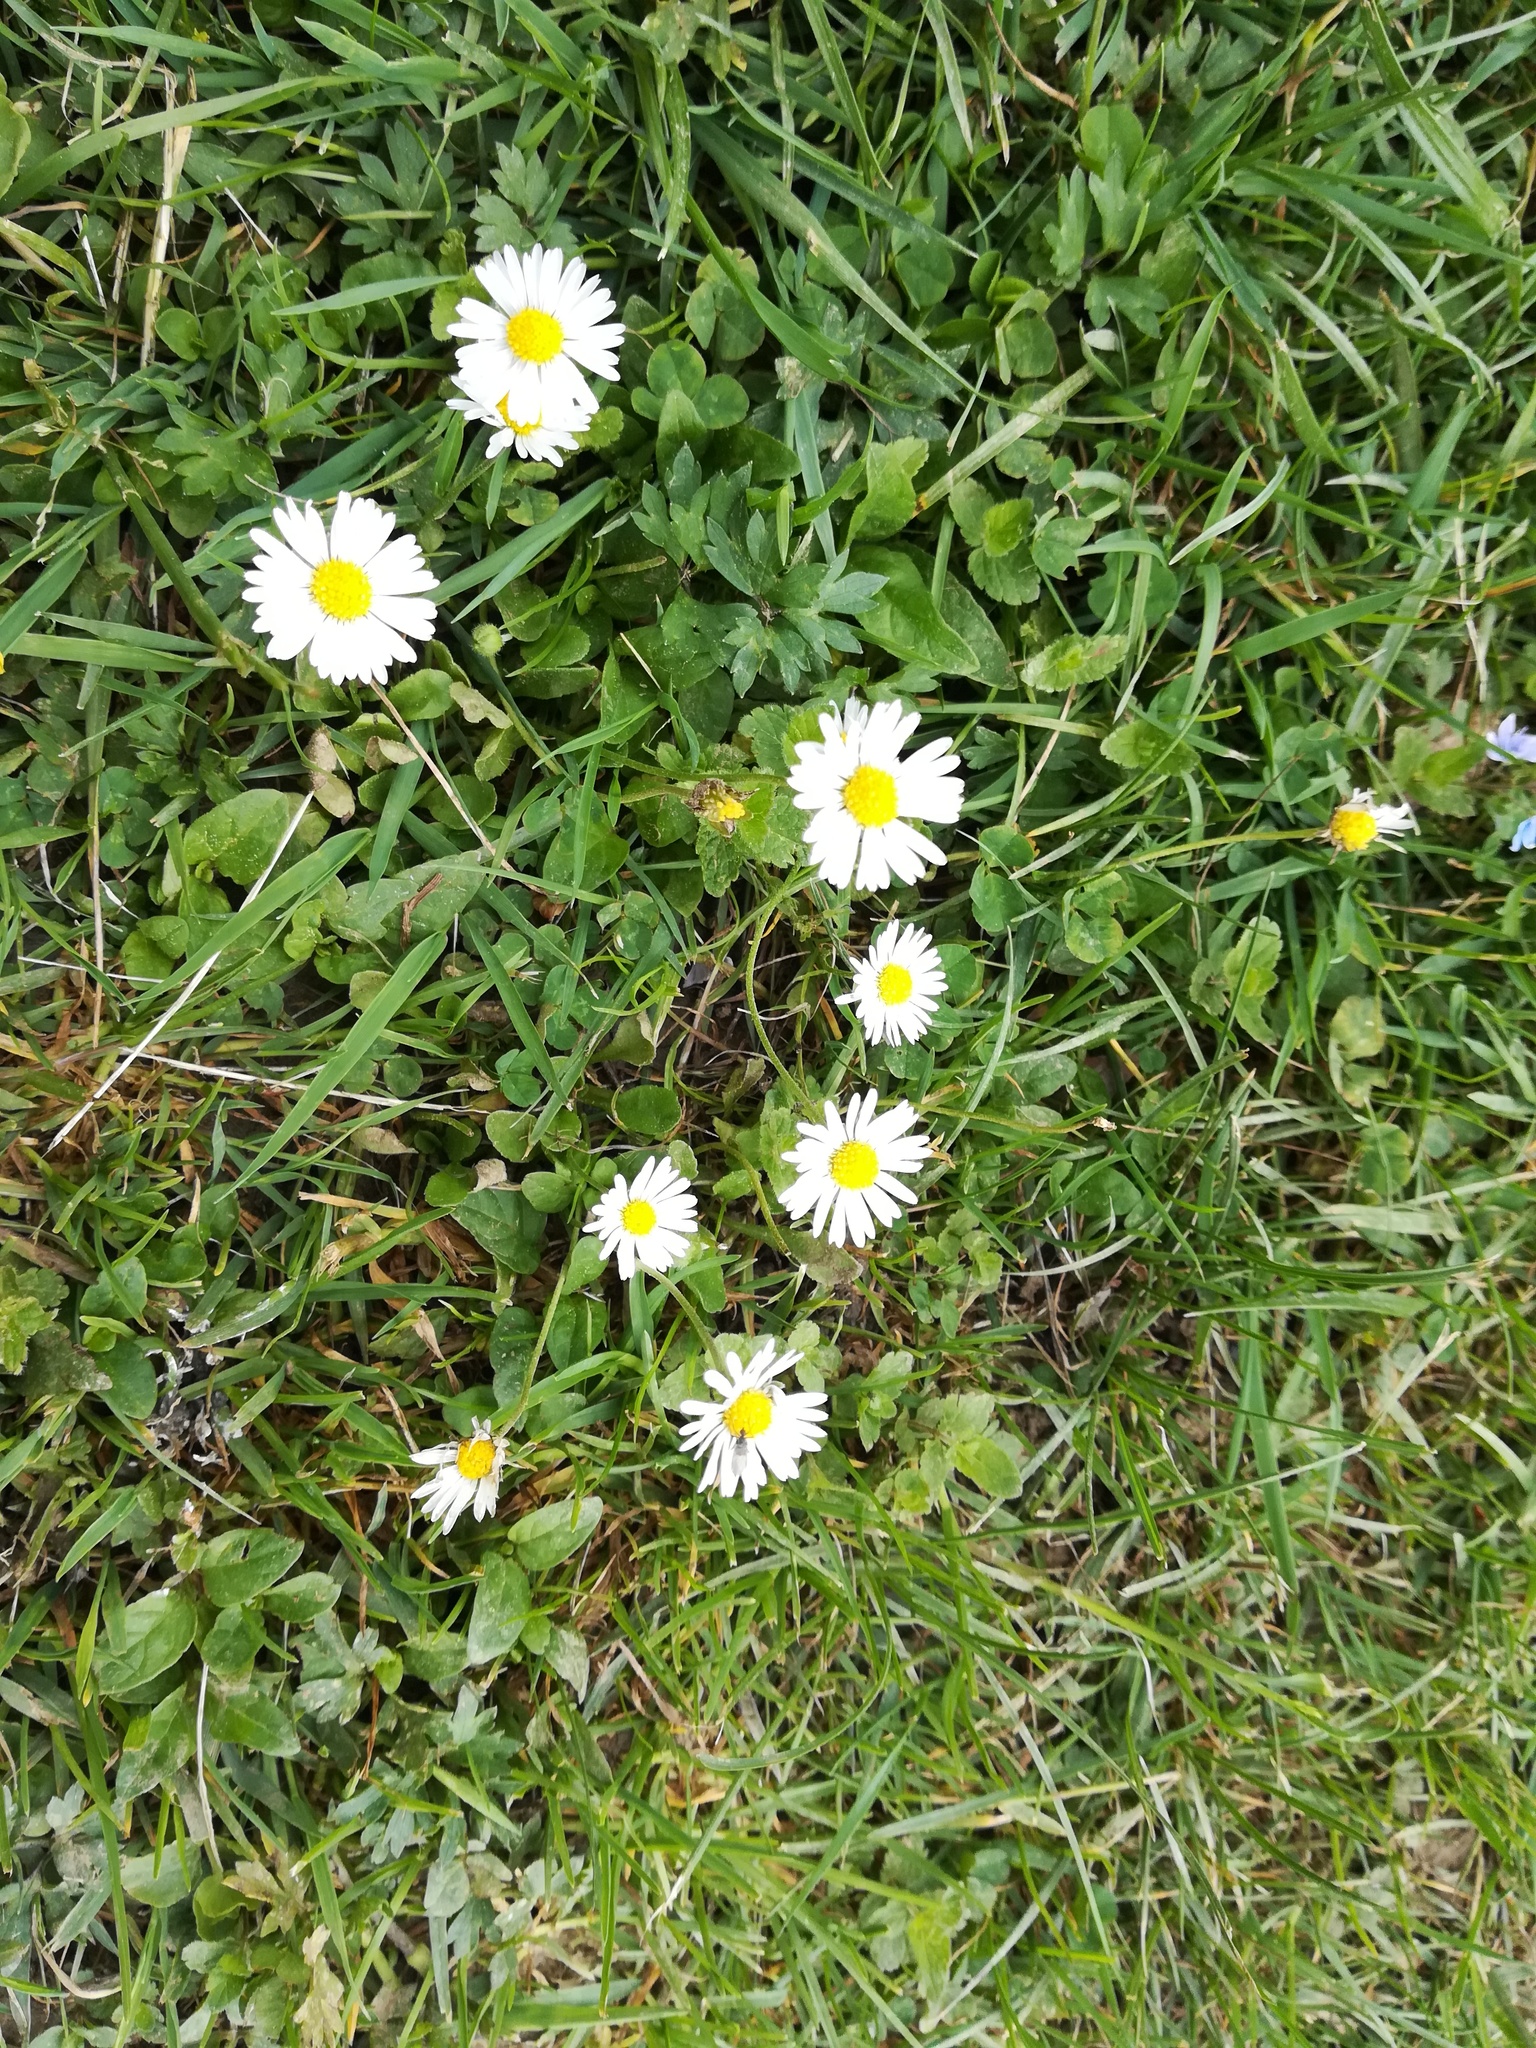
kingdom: Plantae
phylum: Tracheophyta
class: Magnoliopsida
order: Asterales
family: Asteraceae
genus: Bellis
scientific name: Bellis perennis
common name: Lawndaisy
